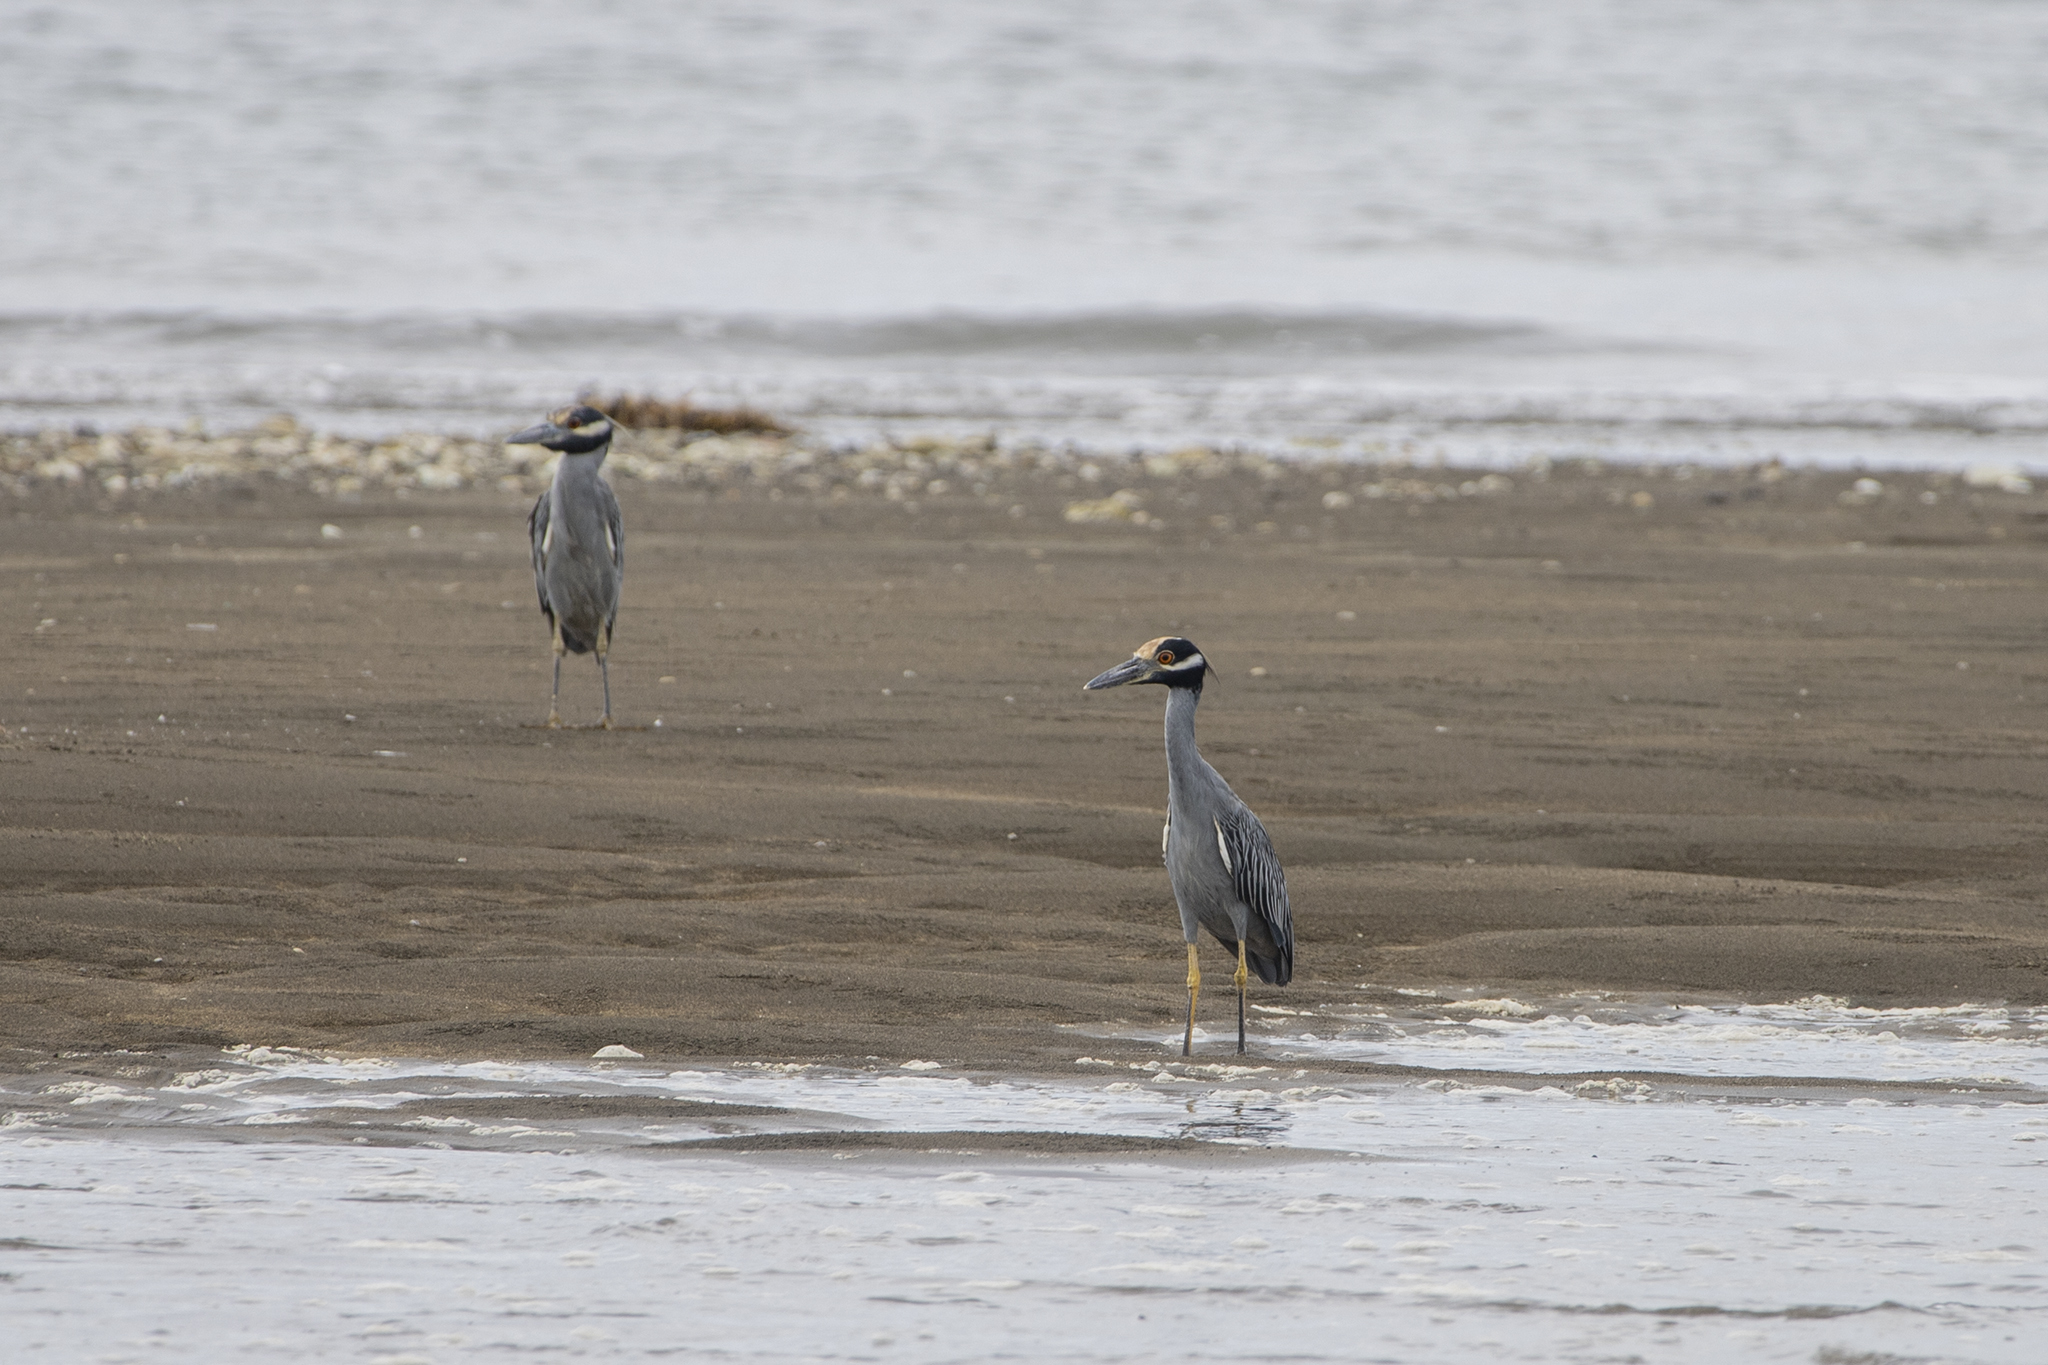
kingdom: Animalia
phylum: Chordata
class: Aves
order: Pelecaniformes
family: Ardeidae
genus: Nyctanassa
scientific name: Nyctanassa violacea
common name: Yellow-crowned night heron
